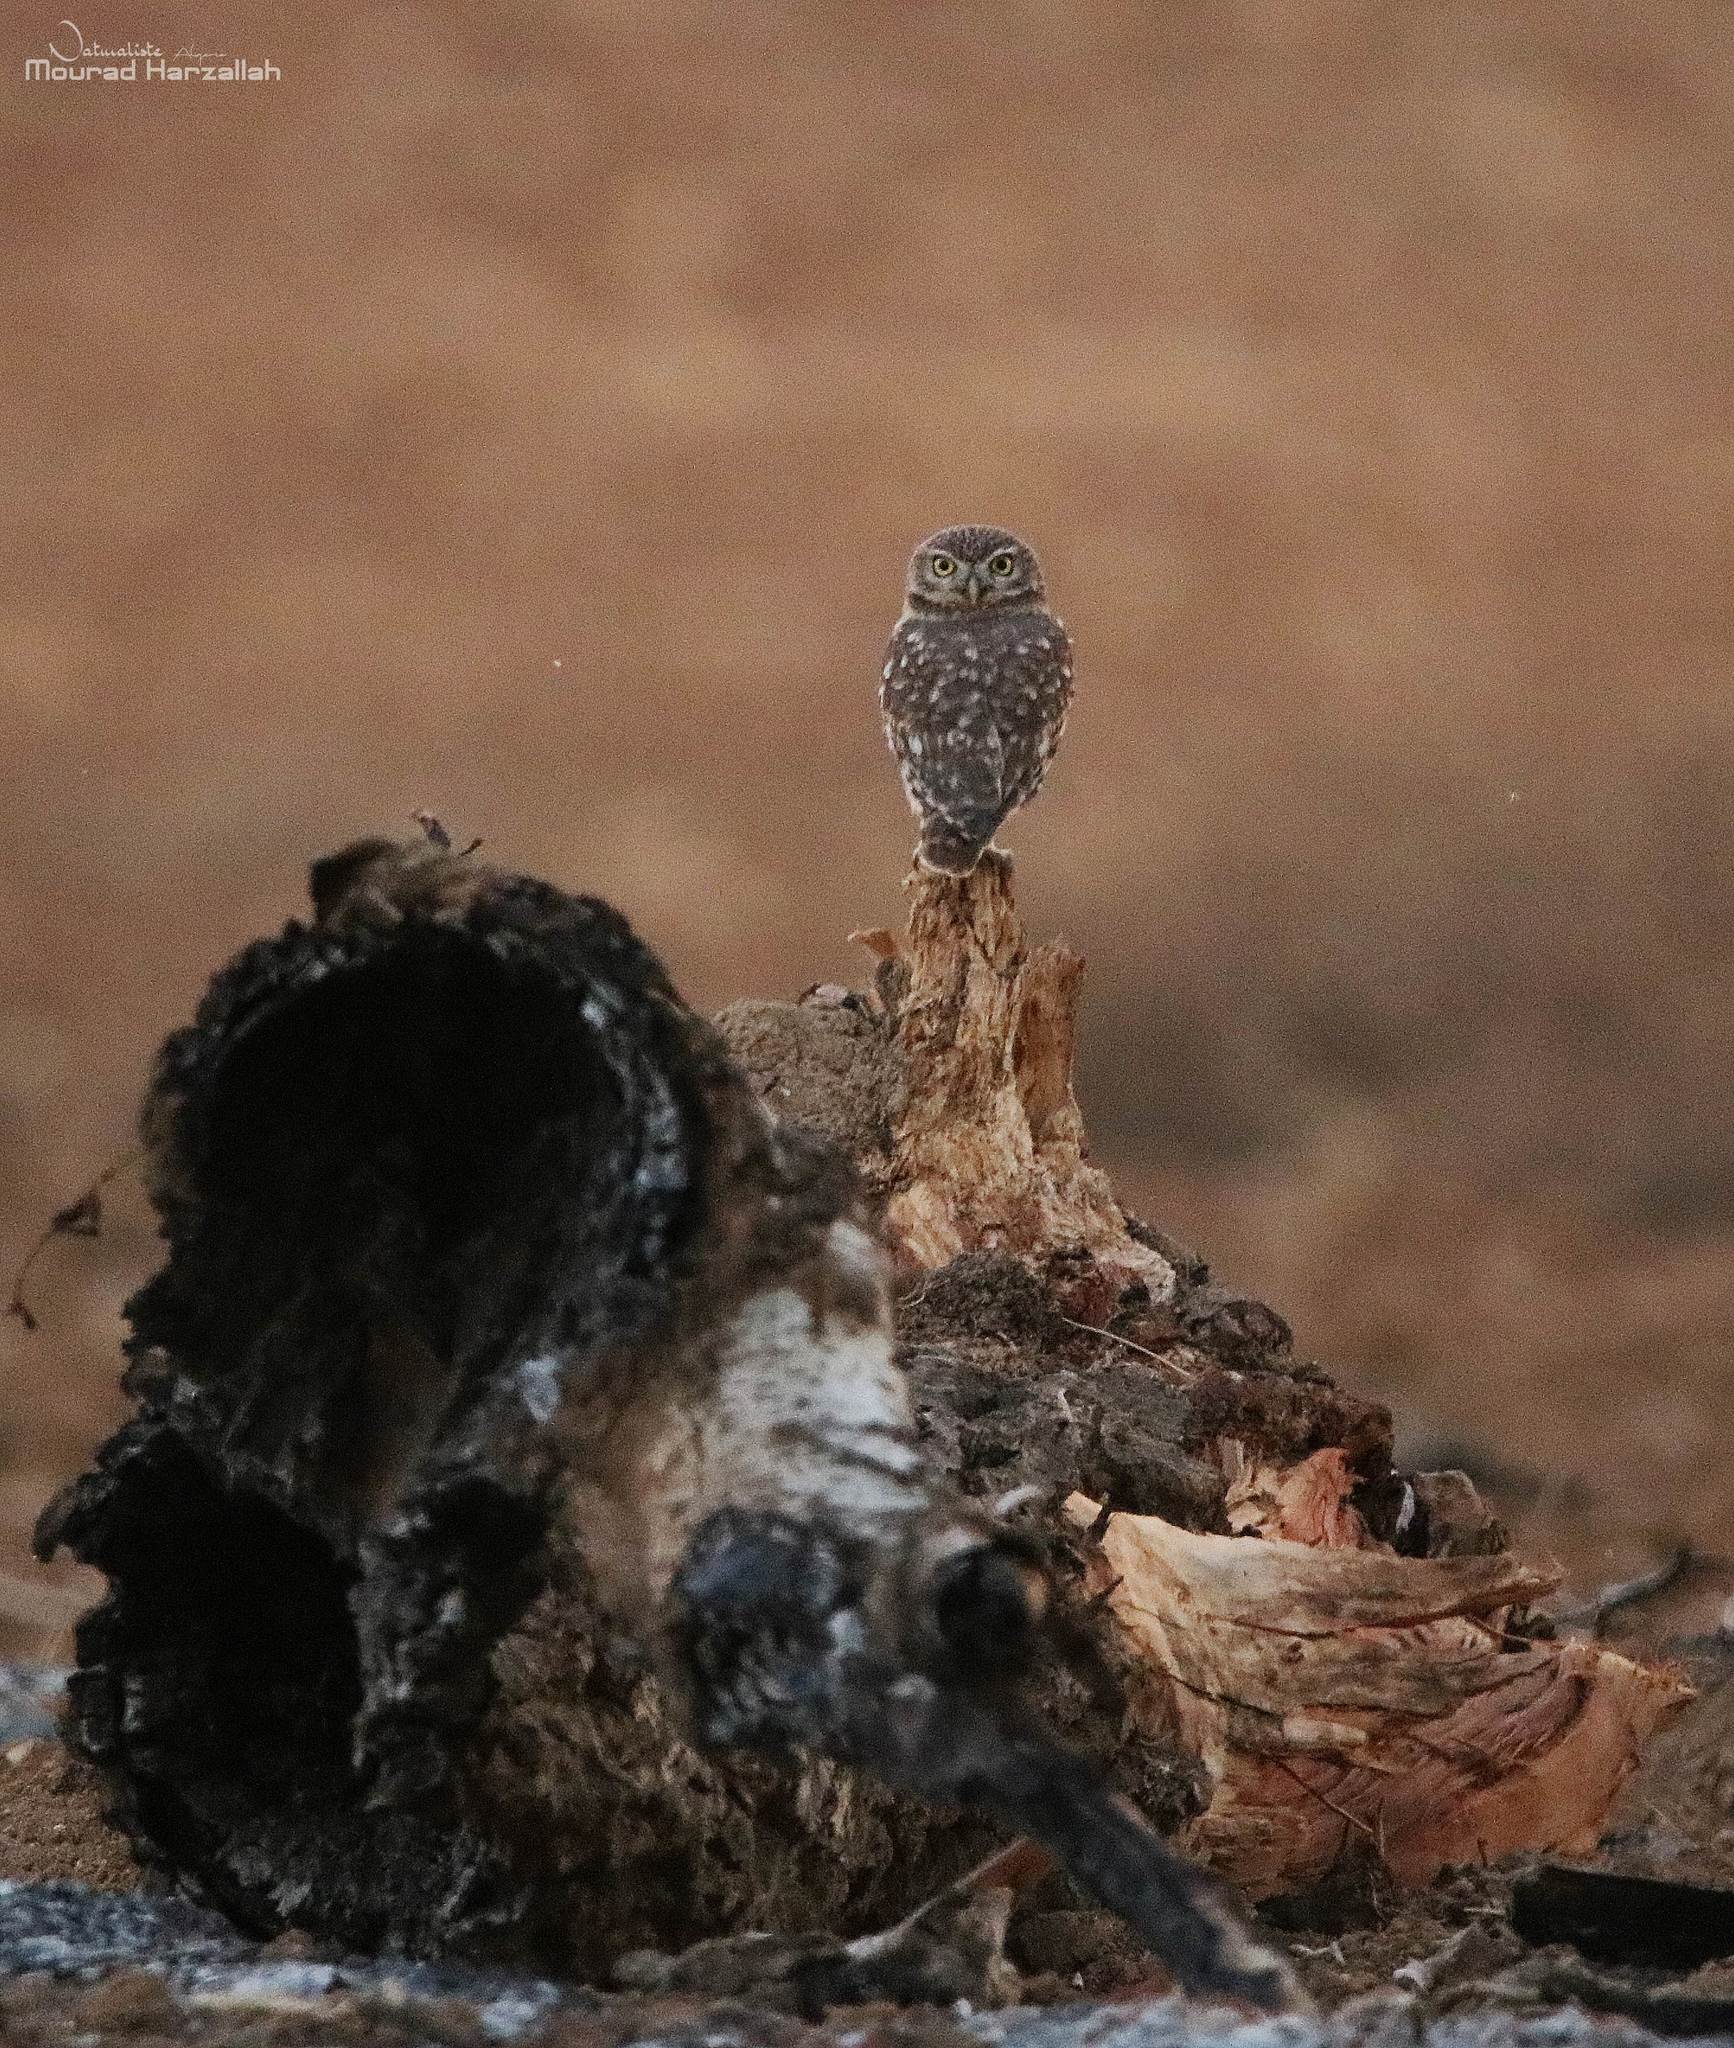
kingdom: Animalia
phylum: Chordata
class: Aves
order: Strigiformes
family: Strigidae
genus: Athene
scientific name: Athene noctua
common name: Little owl
